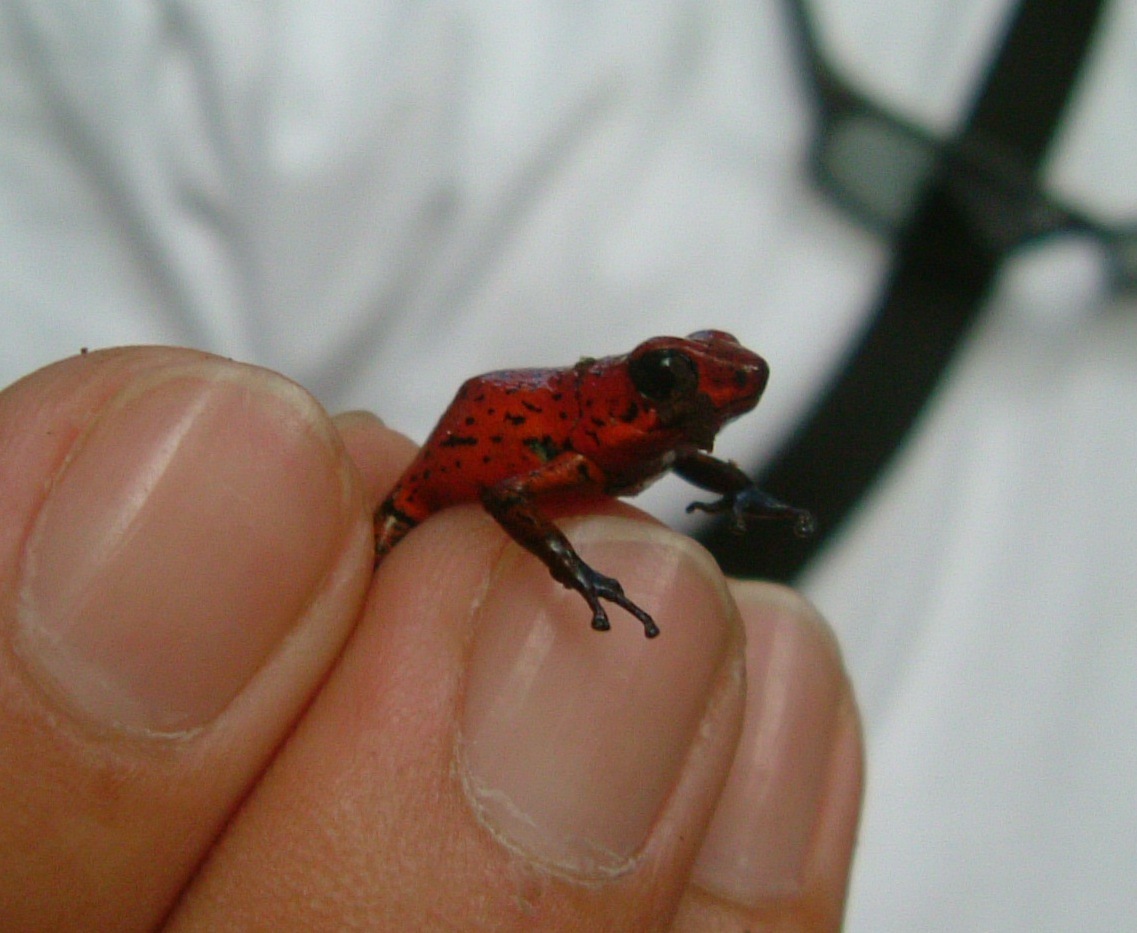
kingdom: Animalia
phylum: Chordata
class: Amphibia
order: Anura
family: Dendrobatidae
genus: Oophaga
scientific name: Oophaga pumilio
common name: Flaming poison frog
